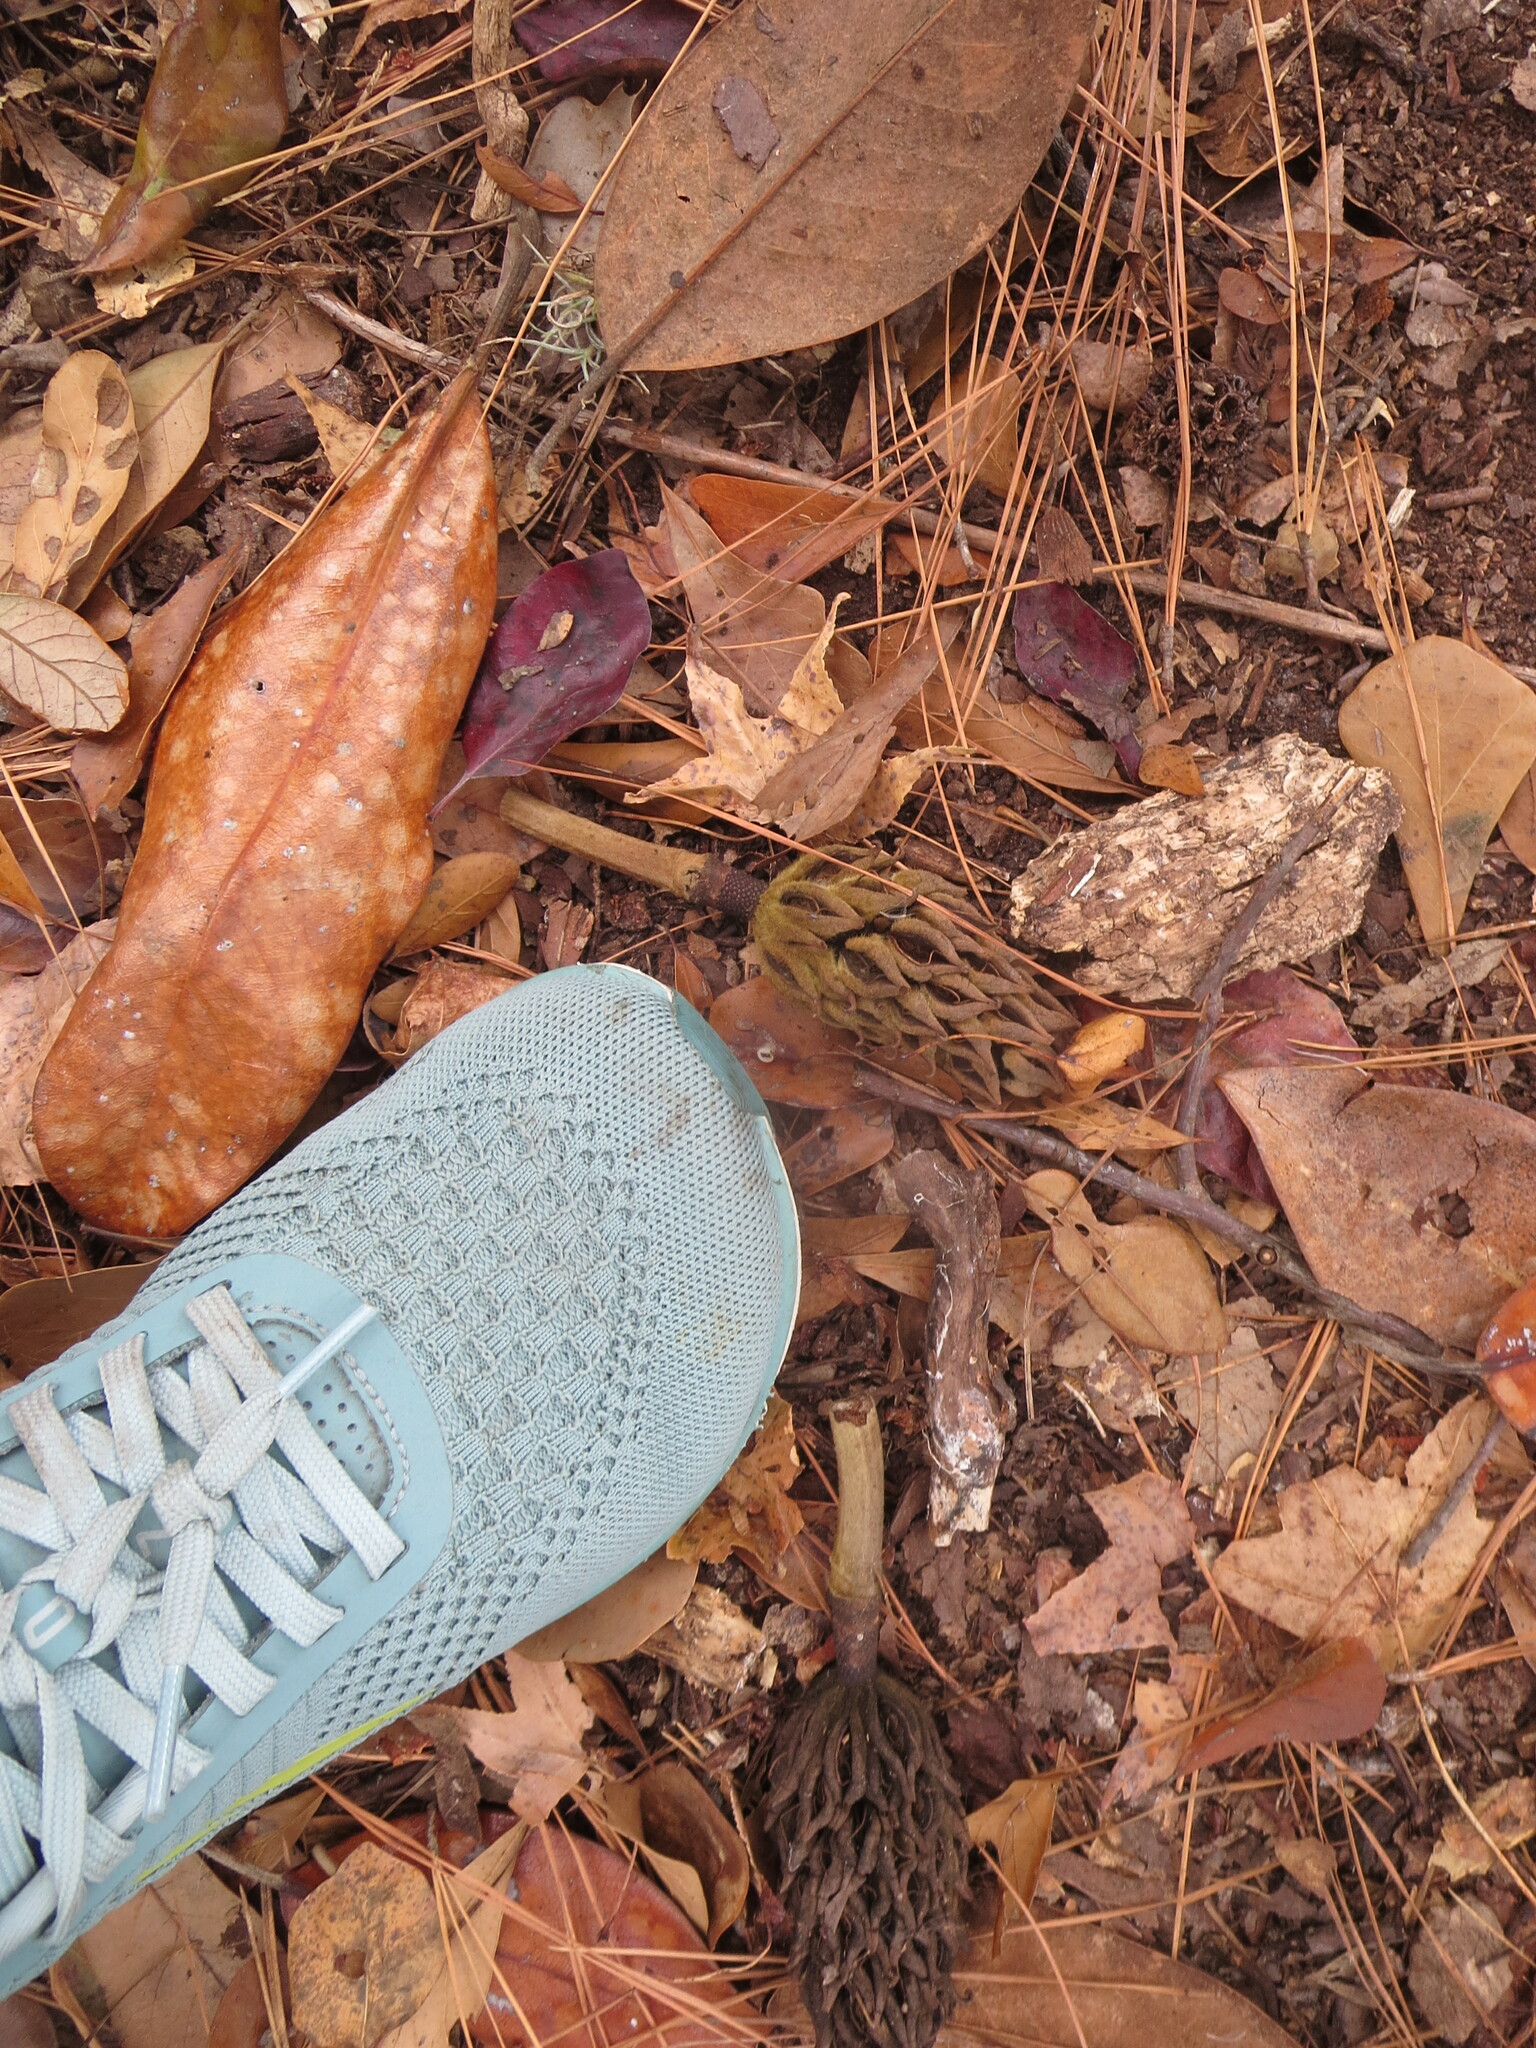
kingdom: Plantae
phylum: Tracheophyta
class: Magnoliopsida
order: Magnoliales
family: Magnoliaceae
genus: Magnolia
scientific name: Magnolia grandiflora
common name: Southern magnolia
